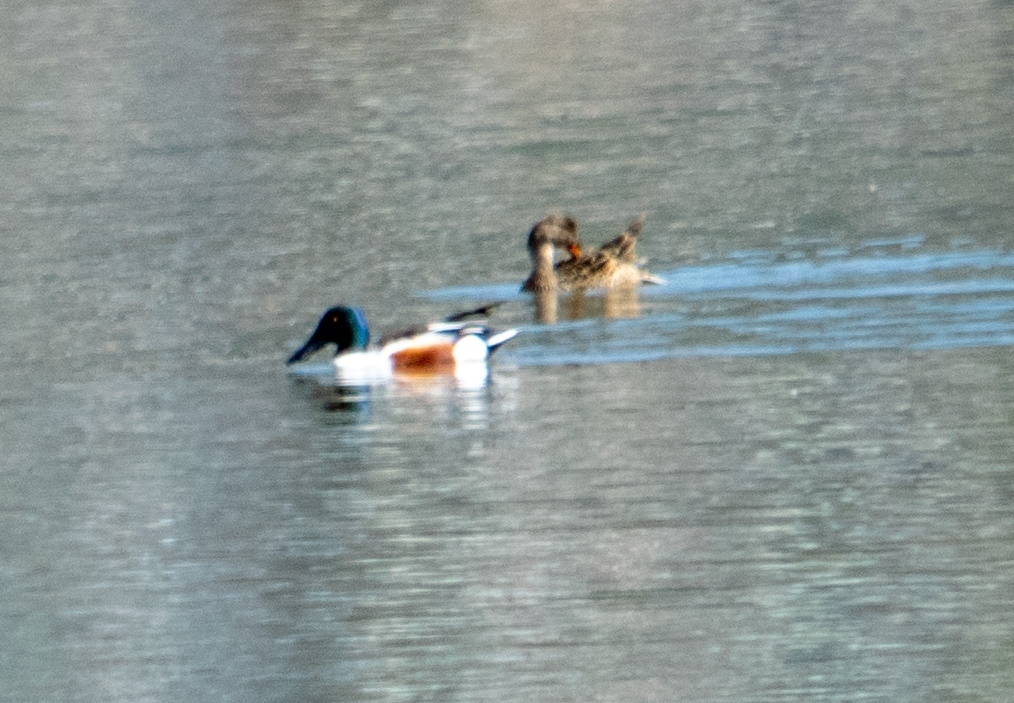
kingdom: Animalia
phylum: Chordata
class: Aves
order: Anseriformes
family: Anatidae
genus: Spatula
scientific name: Spatula clypeata
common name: Northern shoveler
